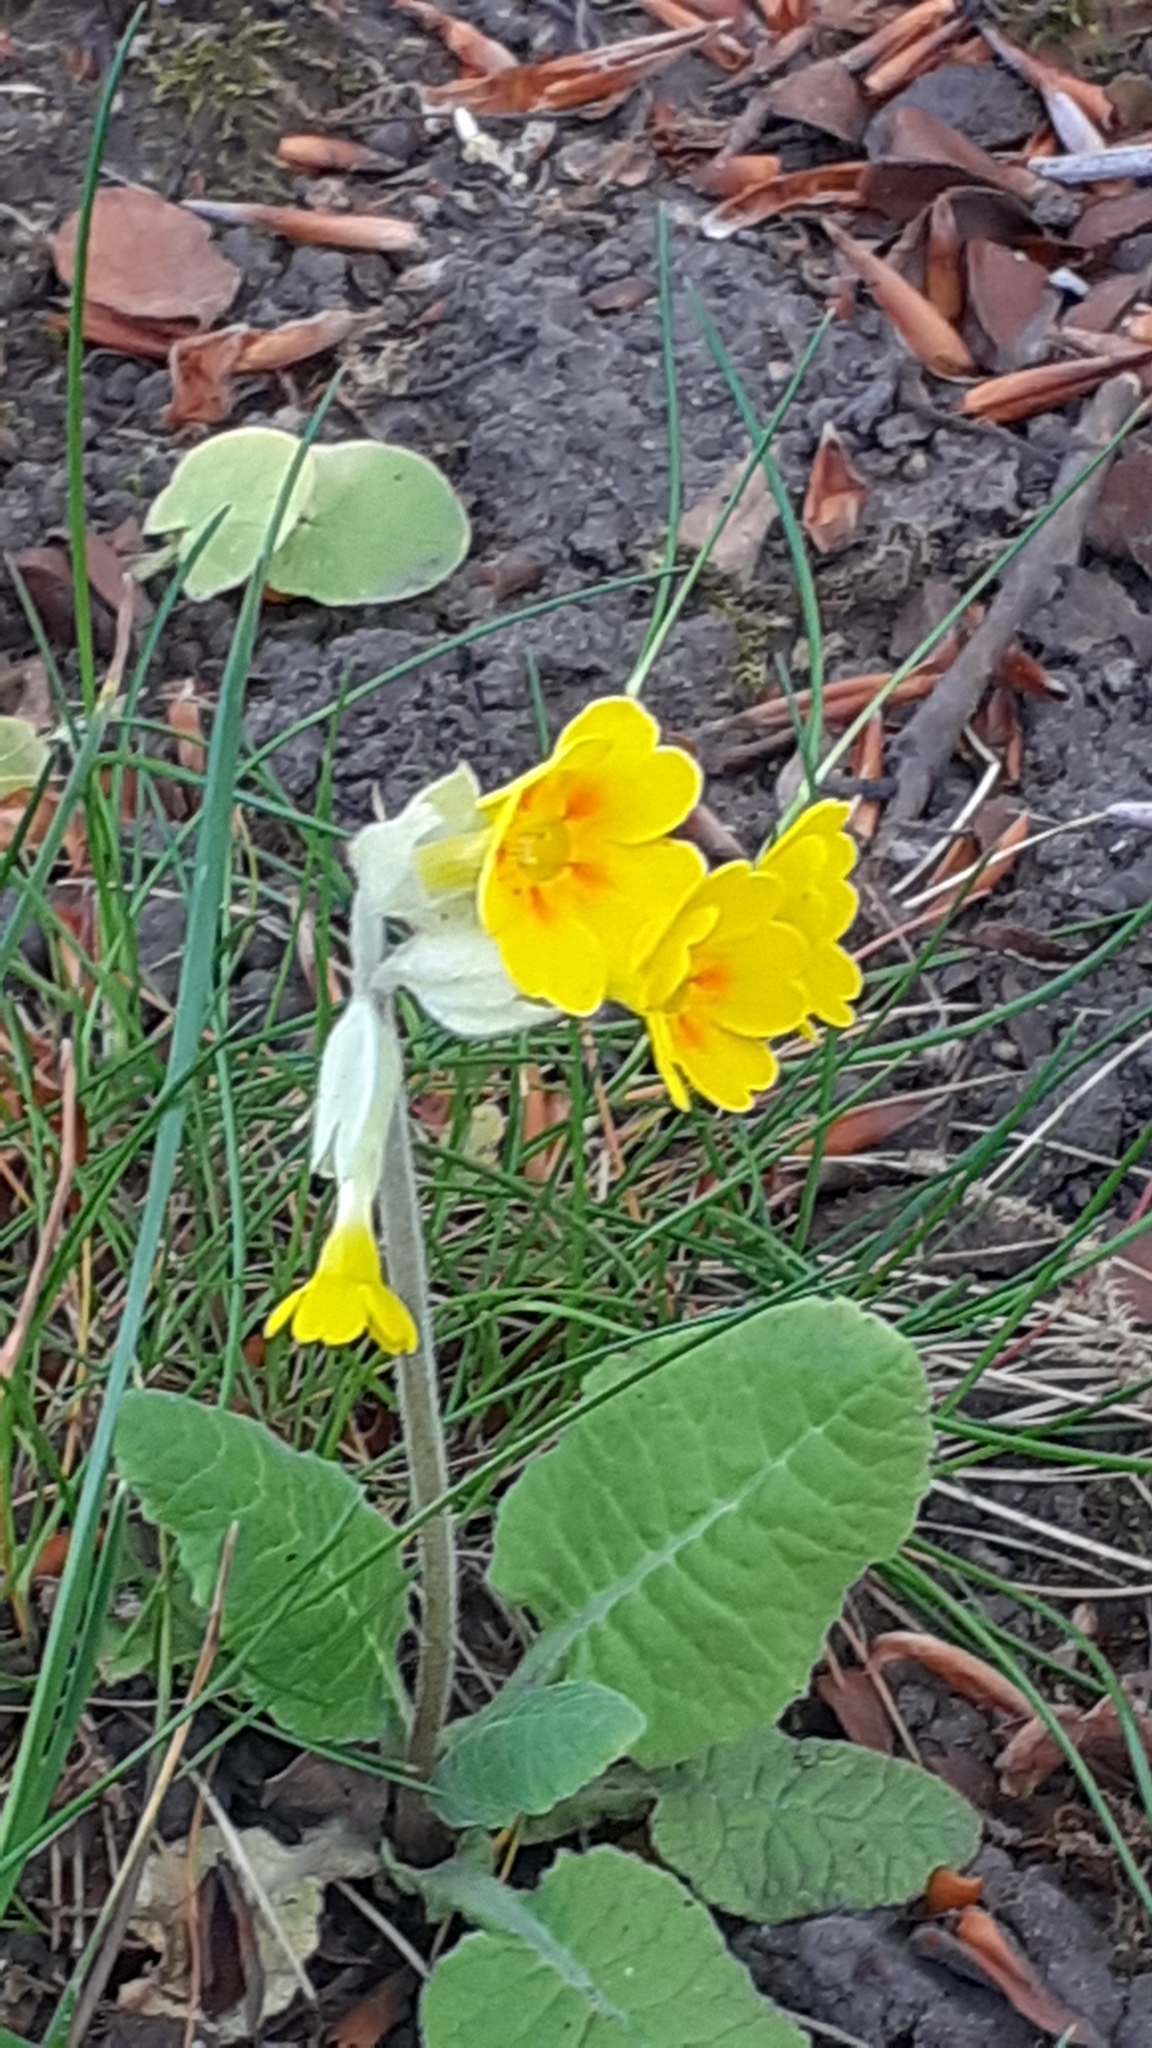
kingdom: Plantae
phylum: Tracheophyta
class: Magnoliopsida
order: Ericales
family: Primulaceae
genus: Primula
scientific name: Primula veris
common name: Cowslip
